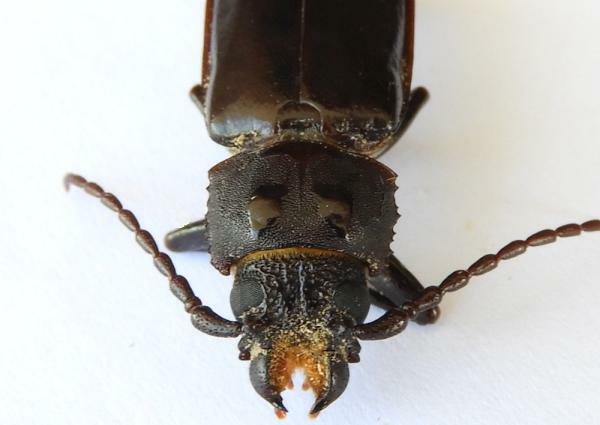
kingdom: Animalia
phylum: Arthropoda
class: Insecta
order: Coleoptera
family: Cerambycidae
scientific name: Cerambycidae
